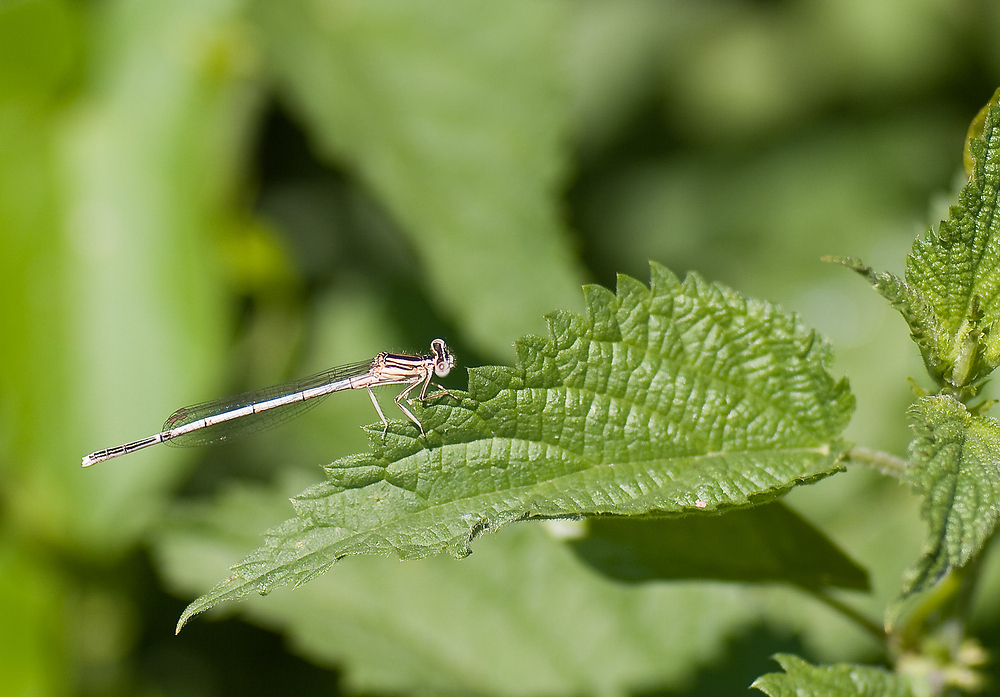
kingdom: Animalia
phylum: Arthropoda
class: Insecta
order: Odonata
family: Platycnemididae
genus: Platycnemis
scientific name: Platycnemis pennipes
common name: White-legged damselfly
